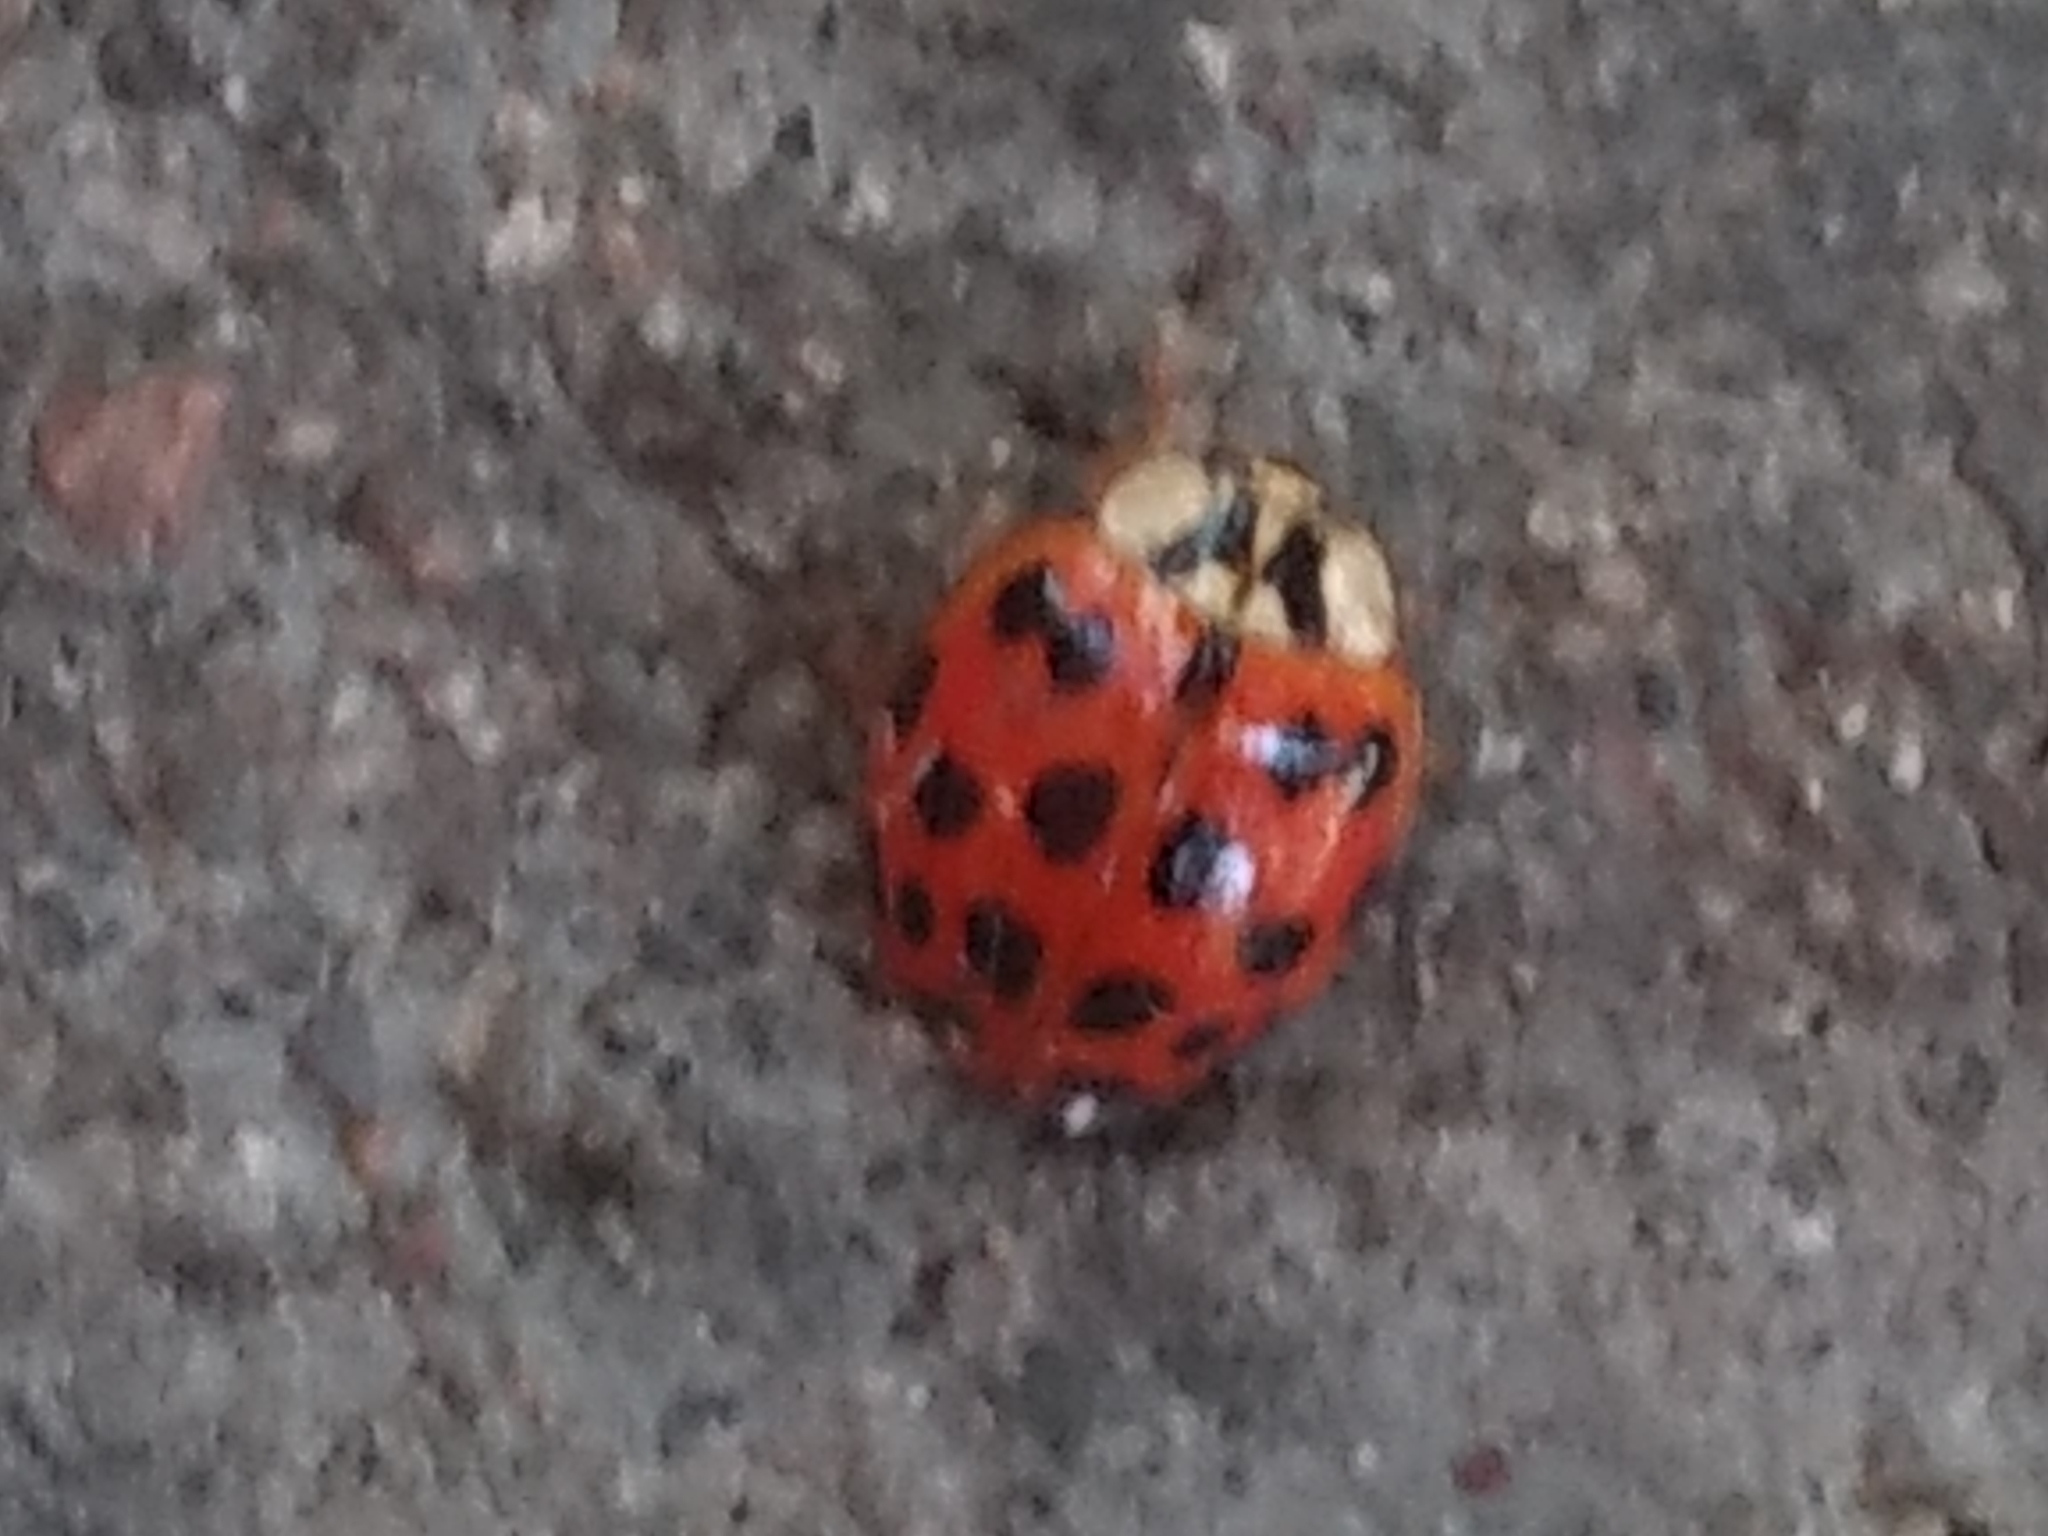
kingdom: Animalia
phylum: Arthropoda
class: Insecta
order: Coleoptera
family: Coccinellidae
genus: Harmonia
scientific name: Harmonia axyridis
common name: Harlequin ladybird
